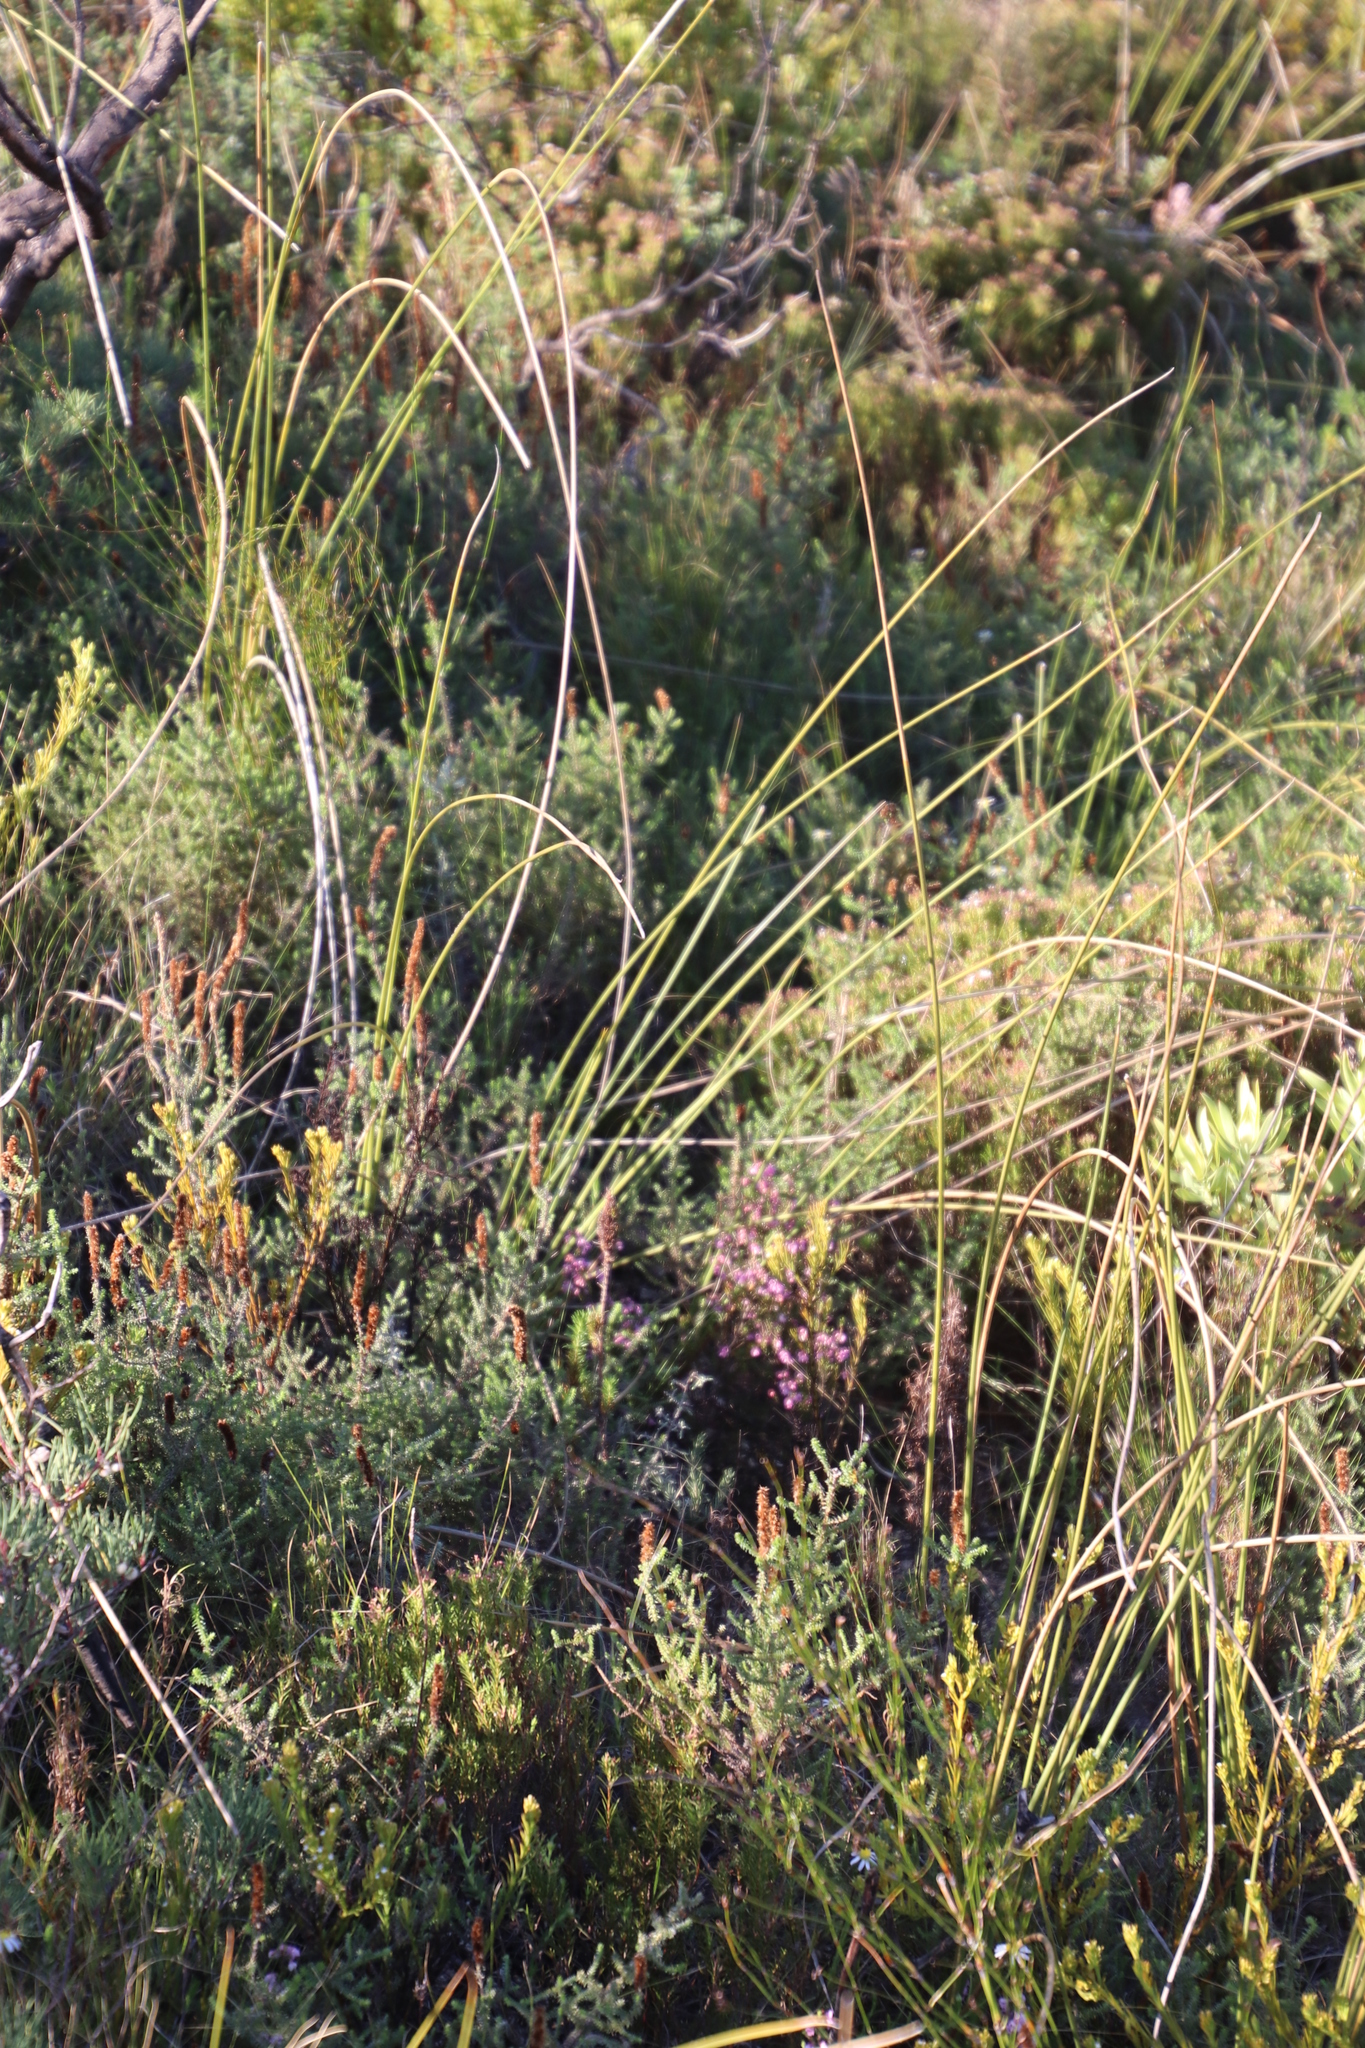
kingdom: Plantae
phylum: Tracheophyta
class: Liliopsida
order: Asparagales
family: Iridaceae
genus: Bobartia
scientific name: Bobartia indica
